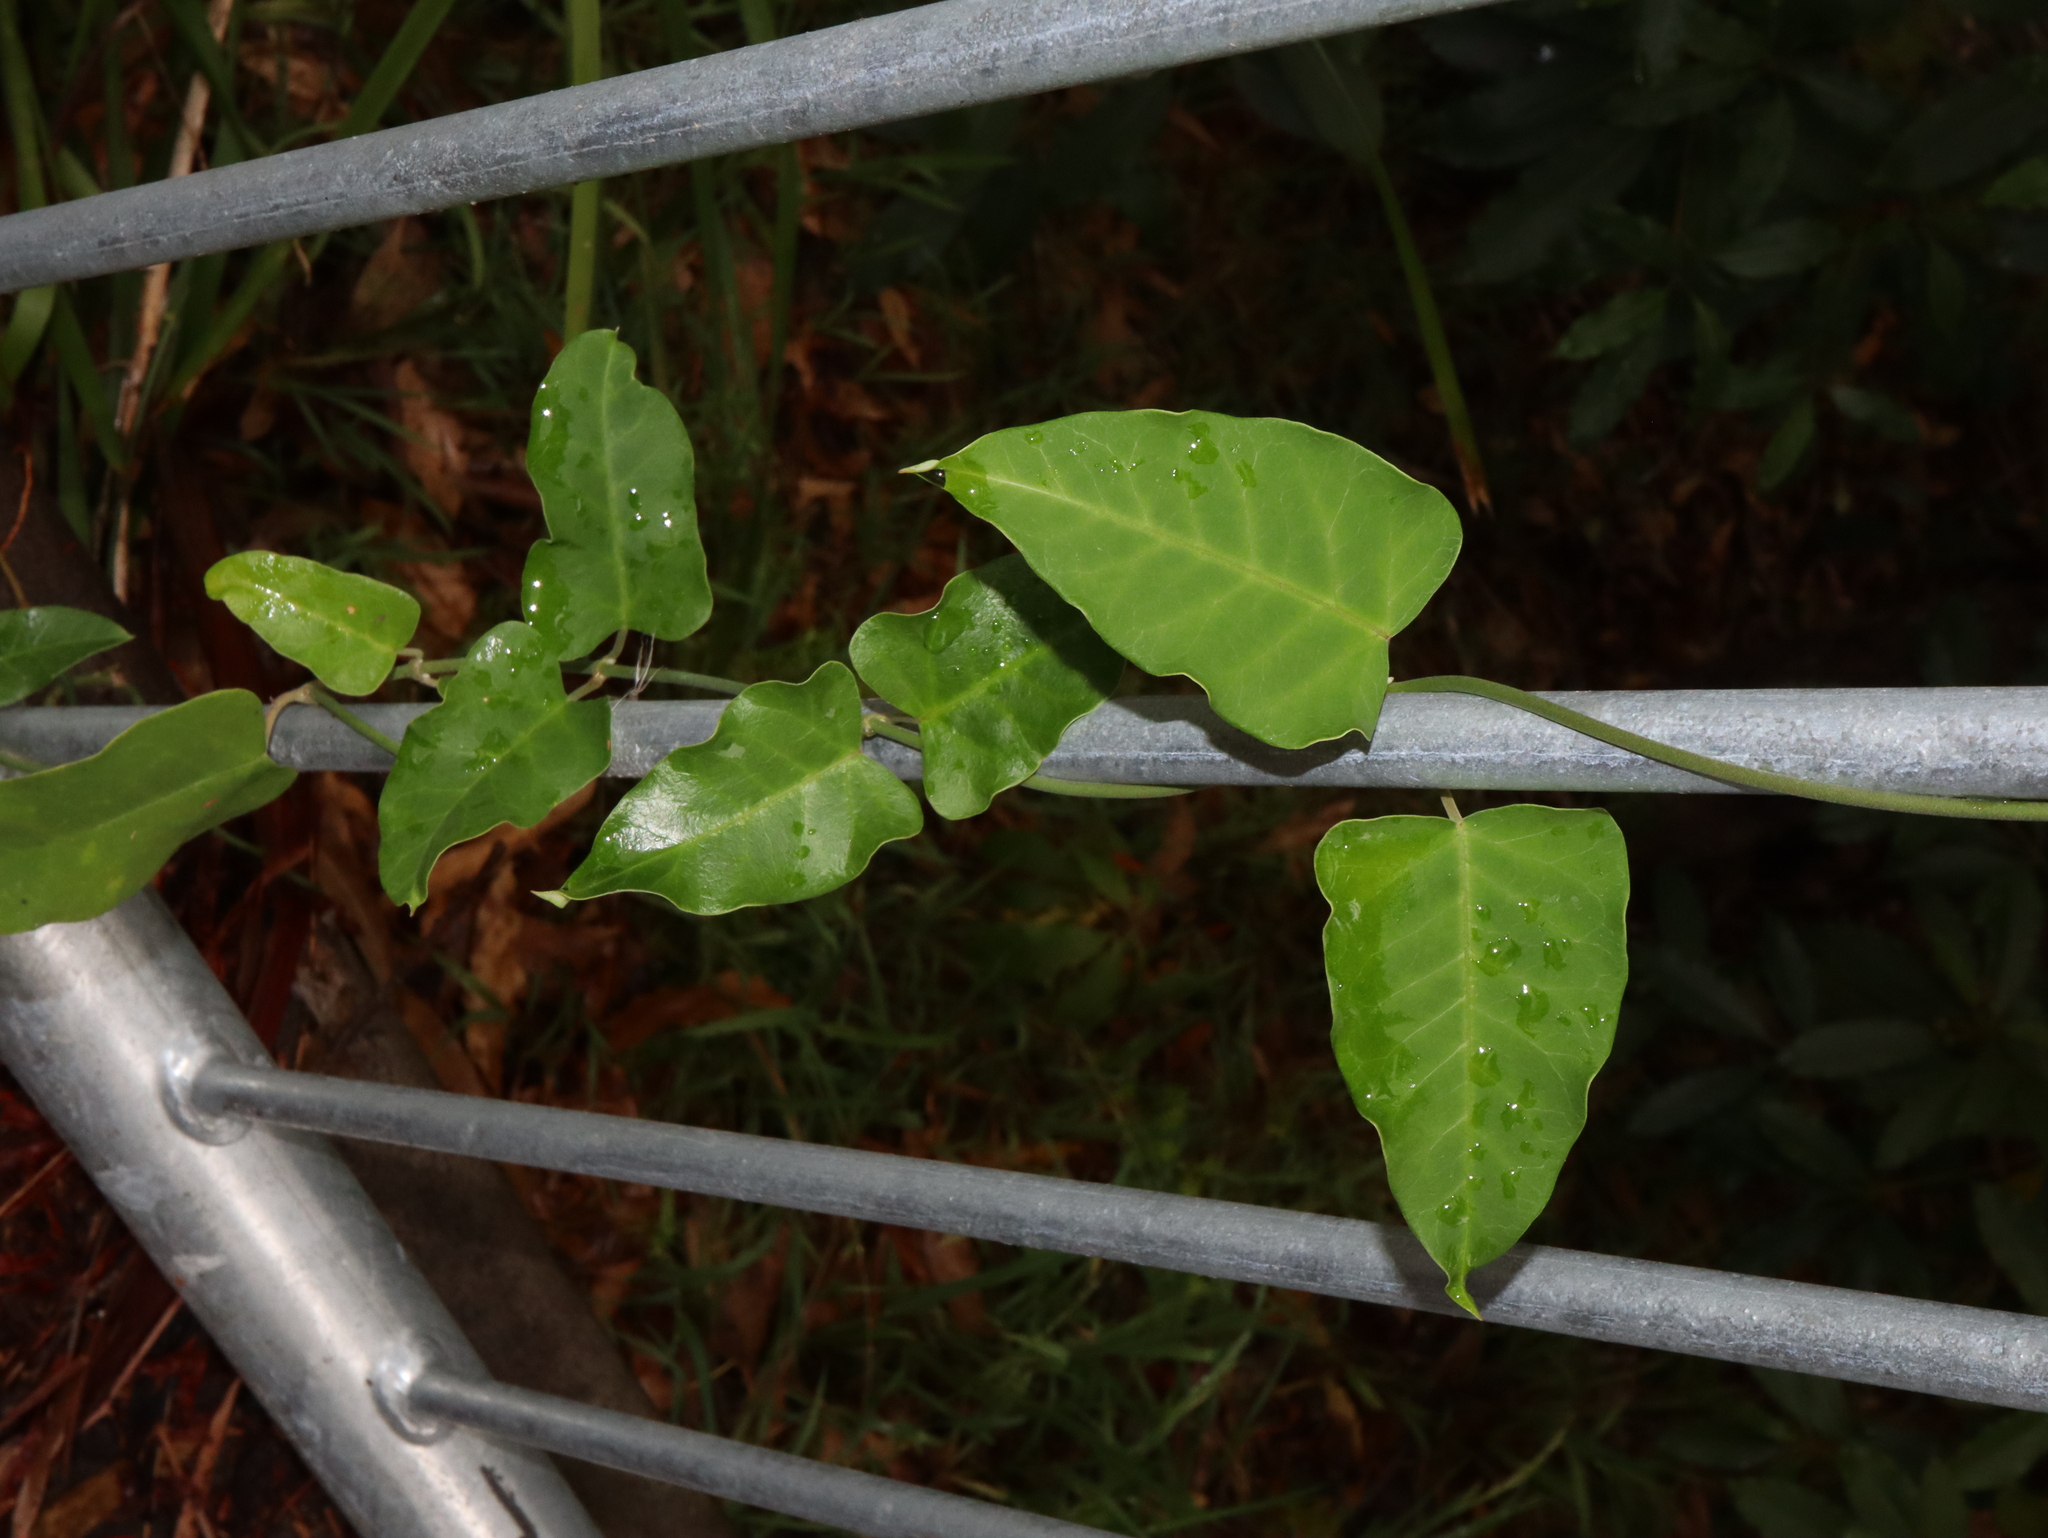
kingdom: Plantae
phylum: Tracheophyta
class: Magnoliopsida
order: Gentianales
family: Apocynaceae
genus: Araujia
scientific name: Araujia sericifera
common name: White bladderflower
